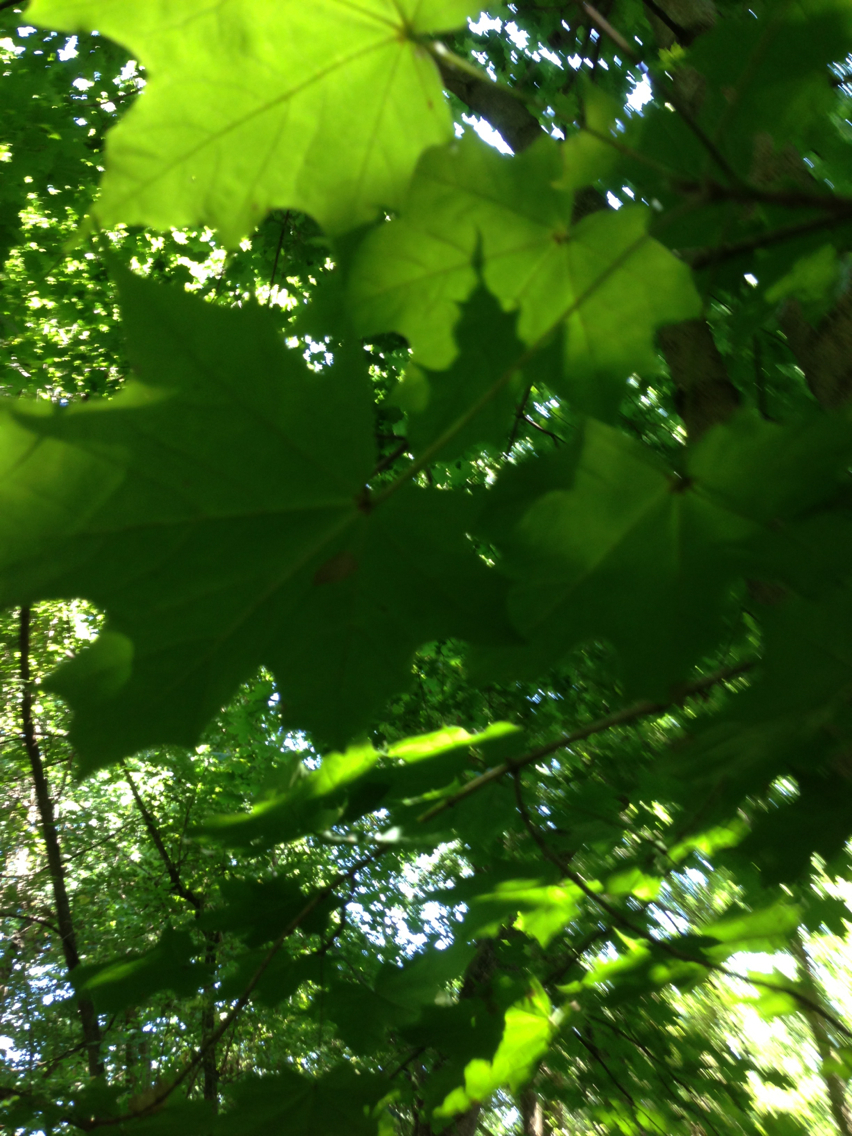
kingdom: Plantae
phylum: Tracheophyta
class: Magnoliopsida
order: Sapindales
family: Sapindaceae
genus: Acer
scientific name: Acer platanoides
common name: Norway maple
